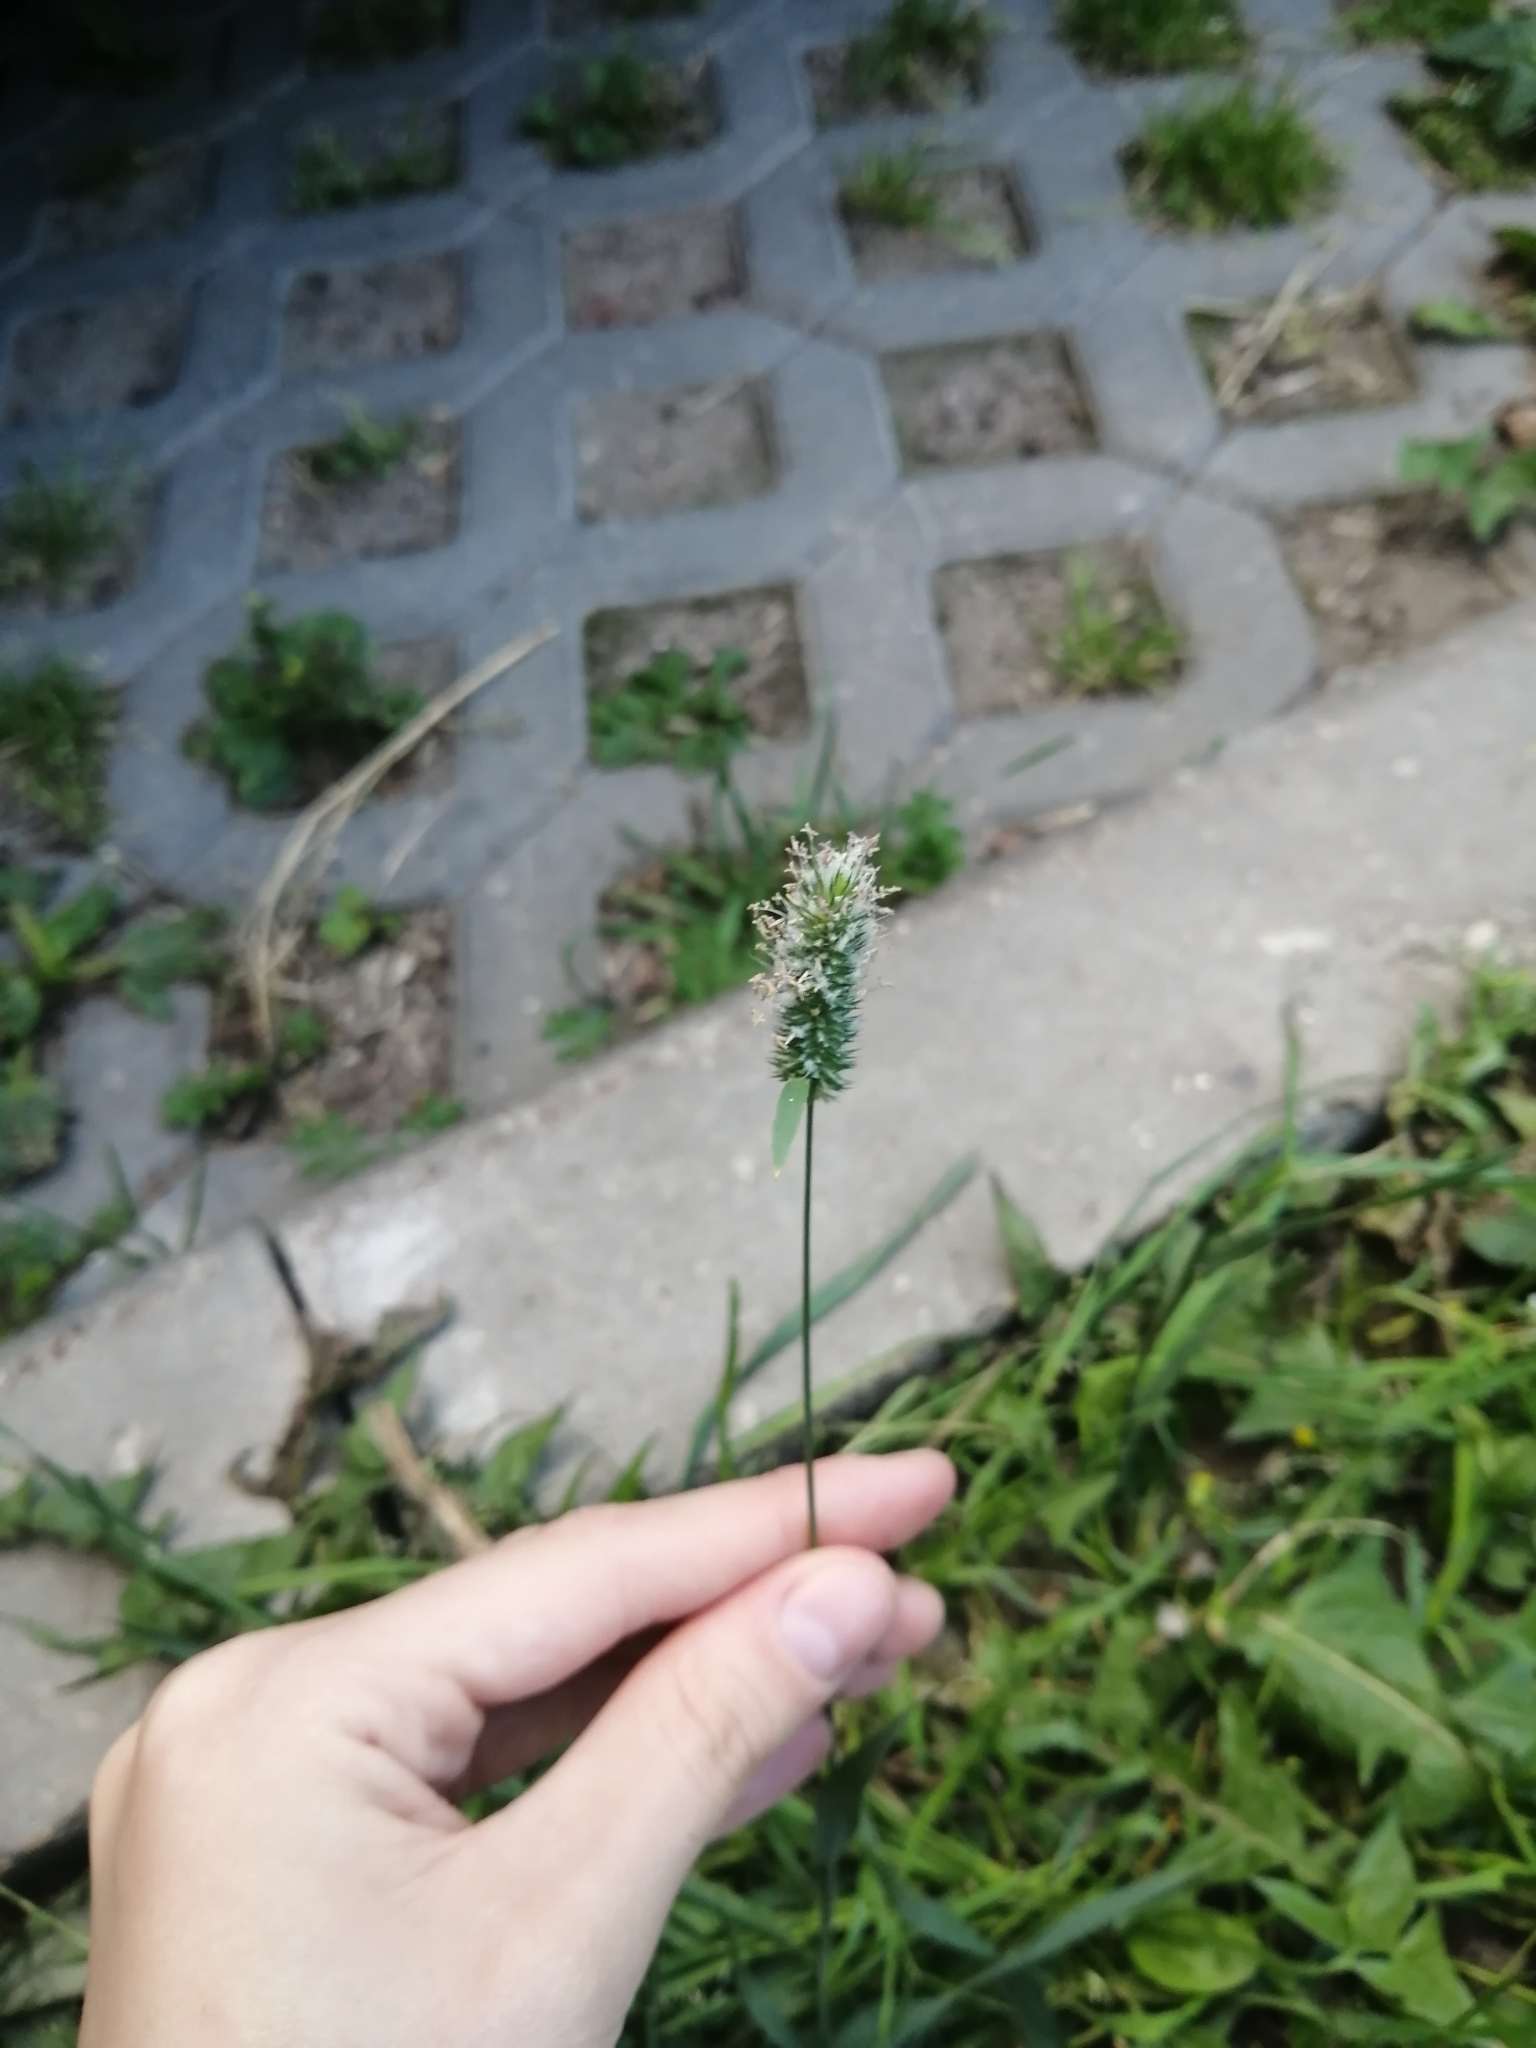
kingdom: Plantae
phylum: Tracheophyta
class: Liliopsida
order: Poales
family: Poaceae
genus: Phleum
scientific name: Phleum pratense
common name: Timothy grass
